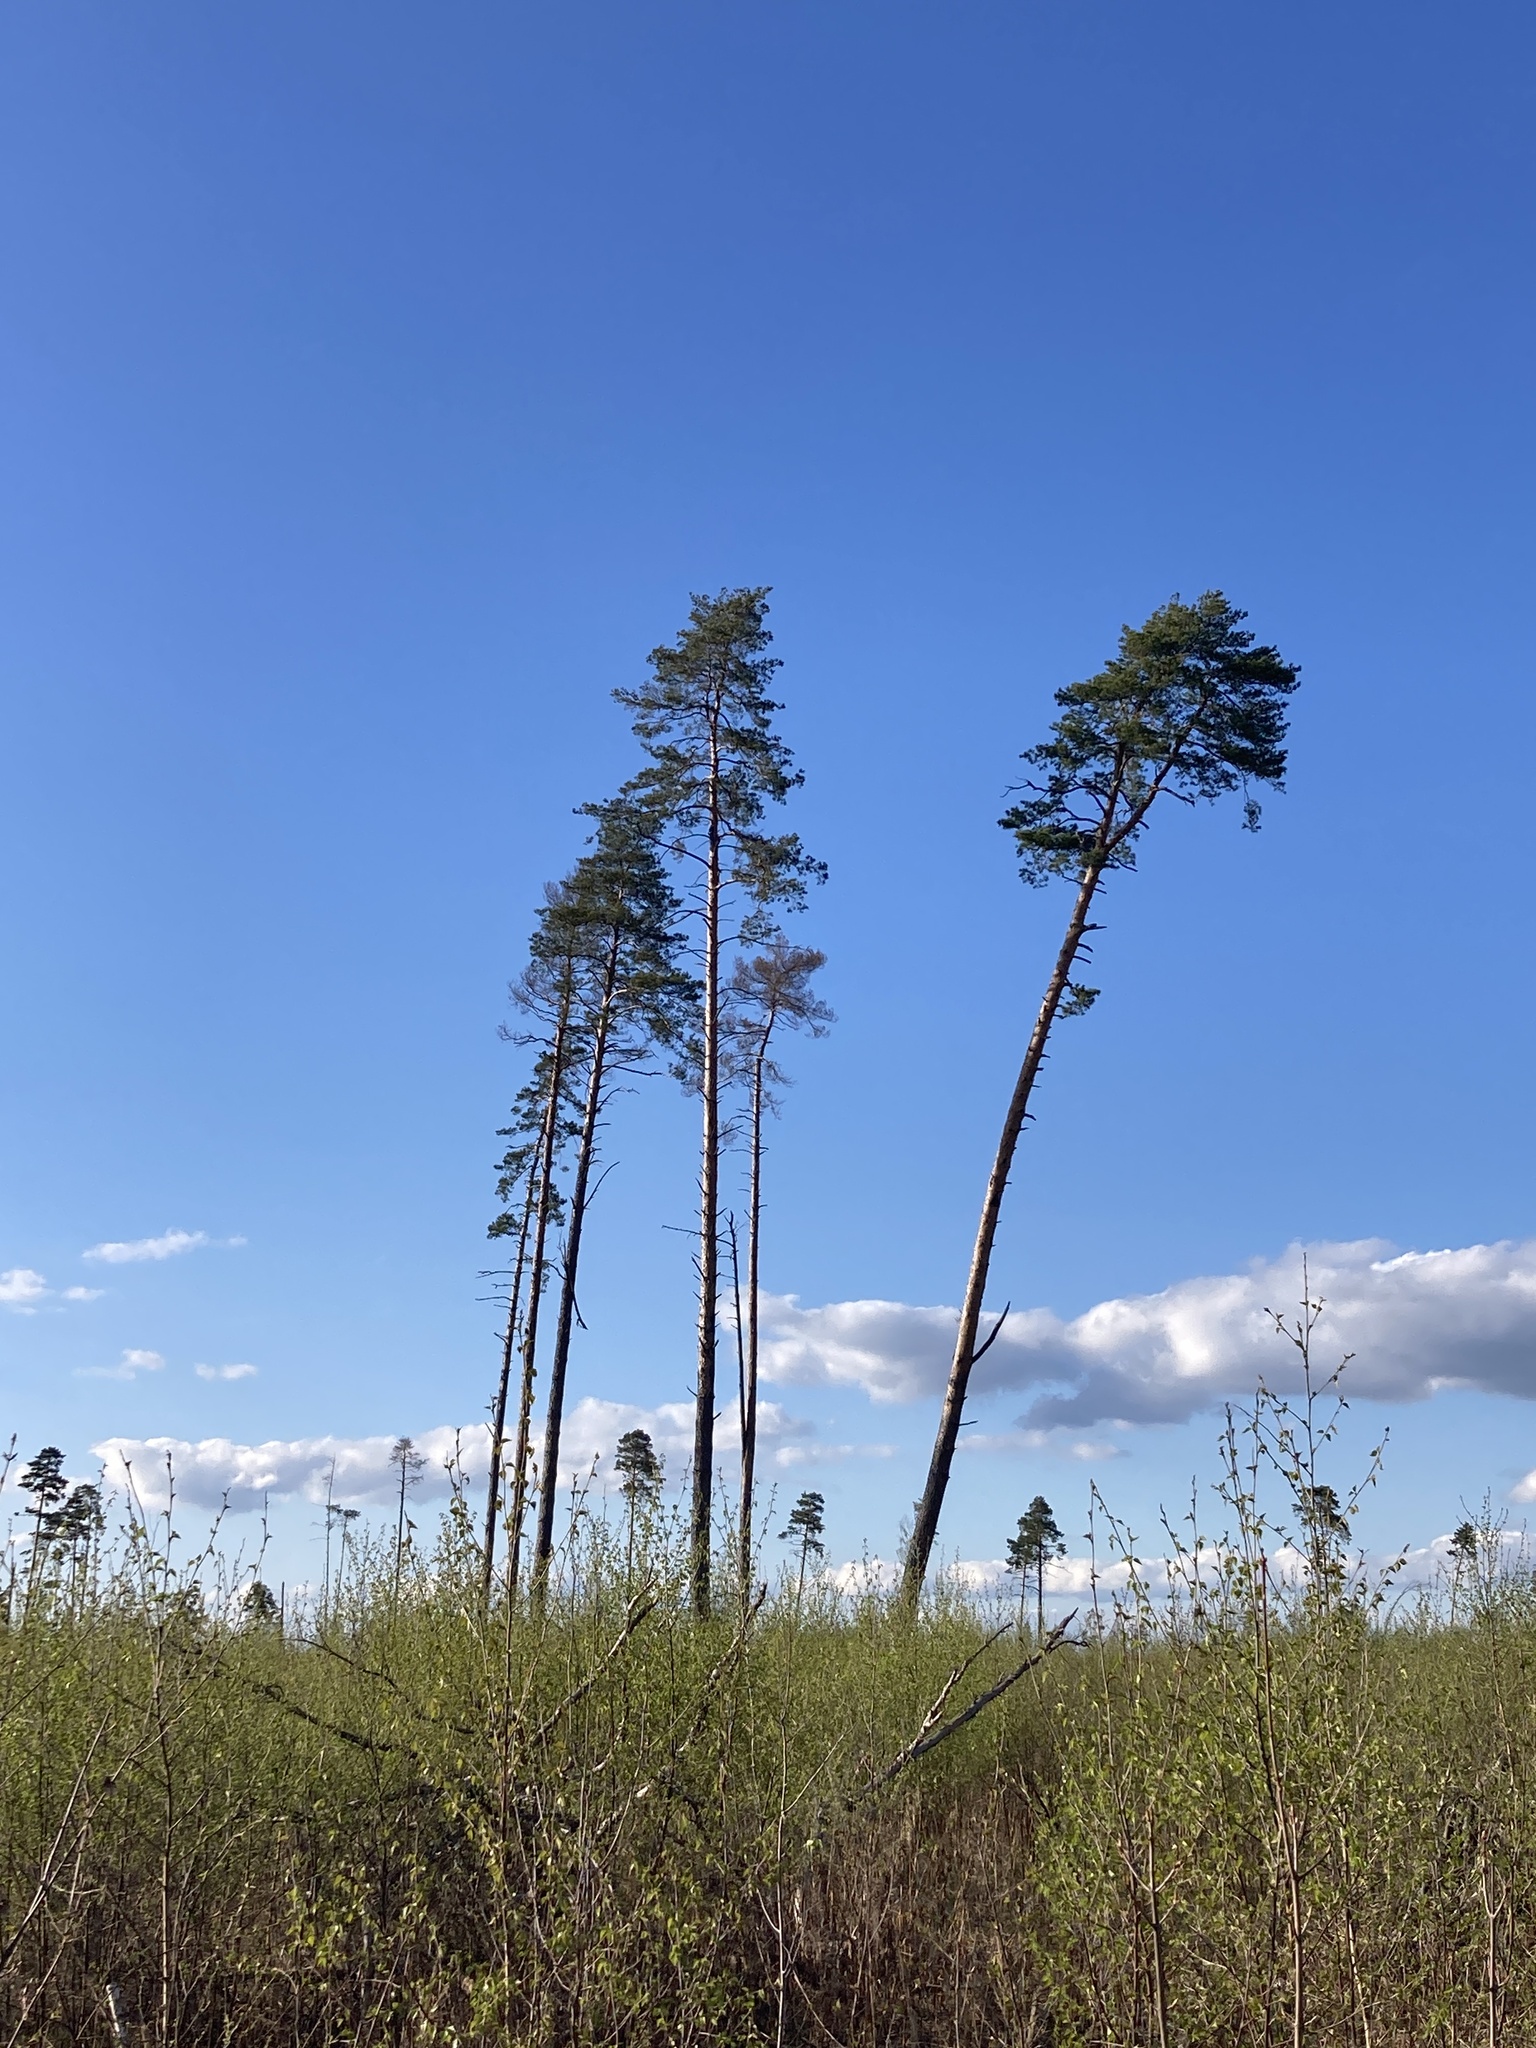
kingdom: Plantae
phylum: Tracheophyta
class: Pinopsida
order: Pinales
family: Pinaceae
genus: Pinus
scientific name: Pinus sylvestris
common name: Scots pine
